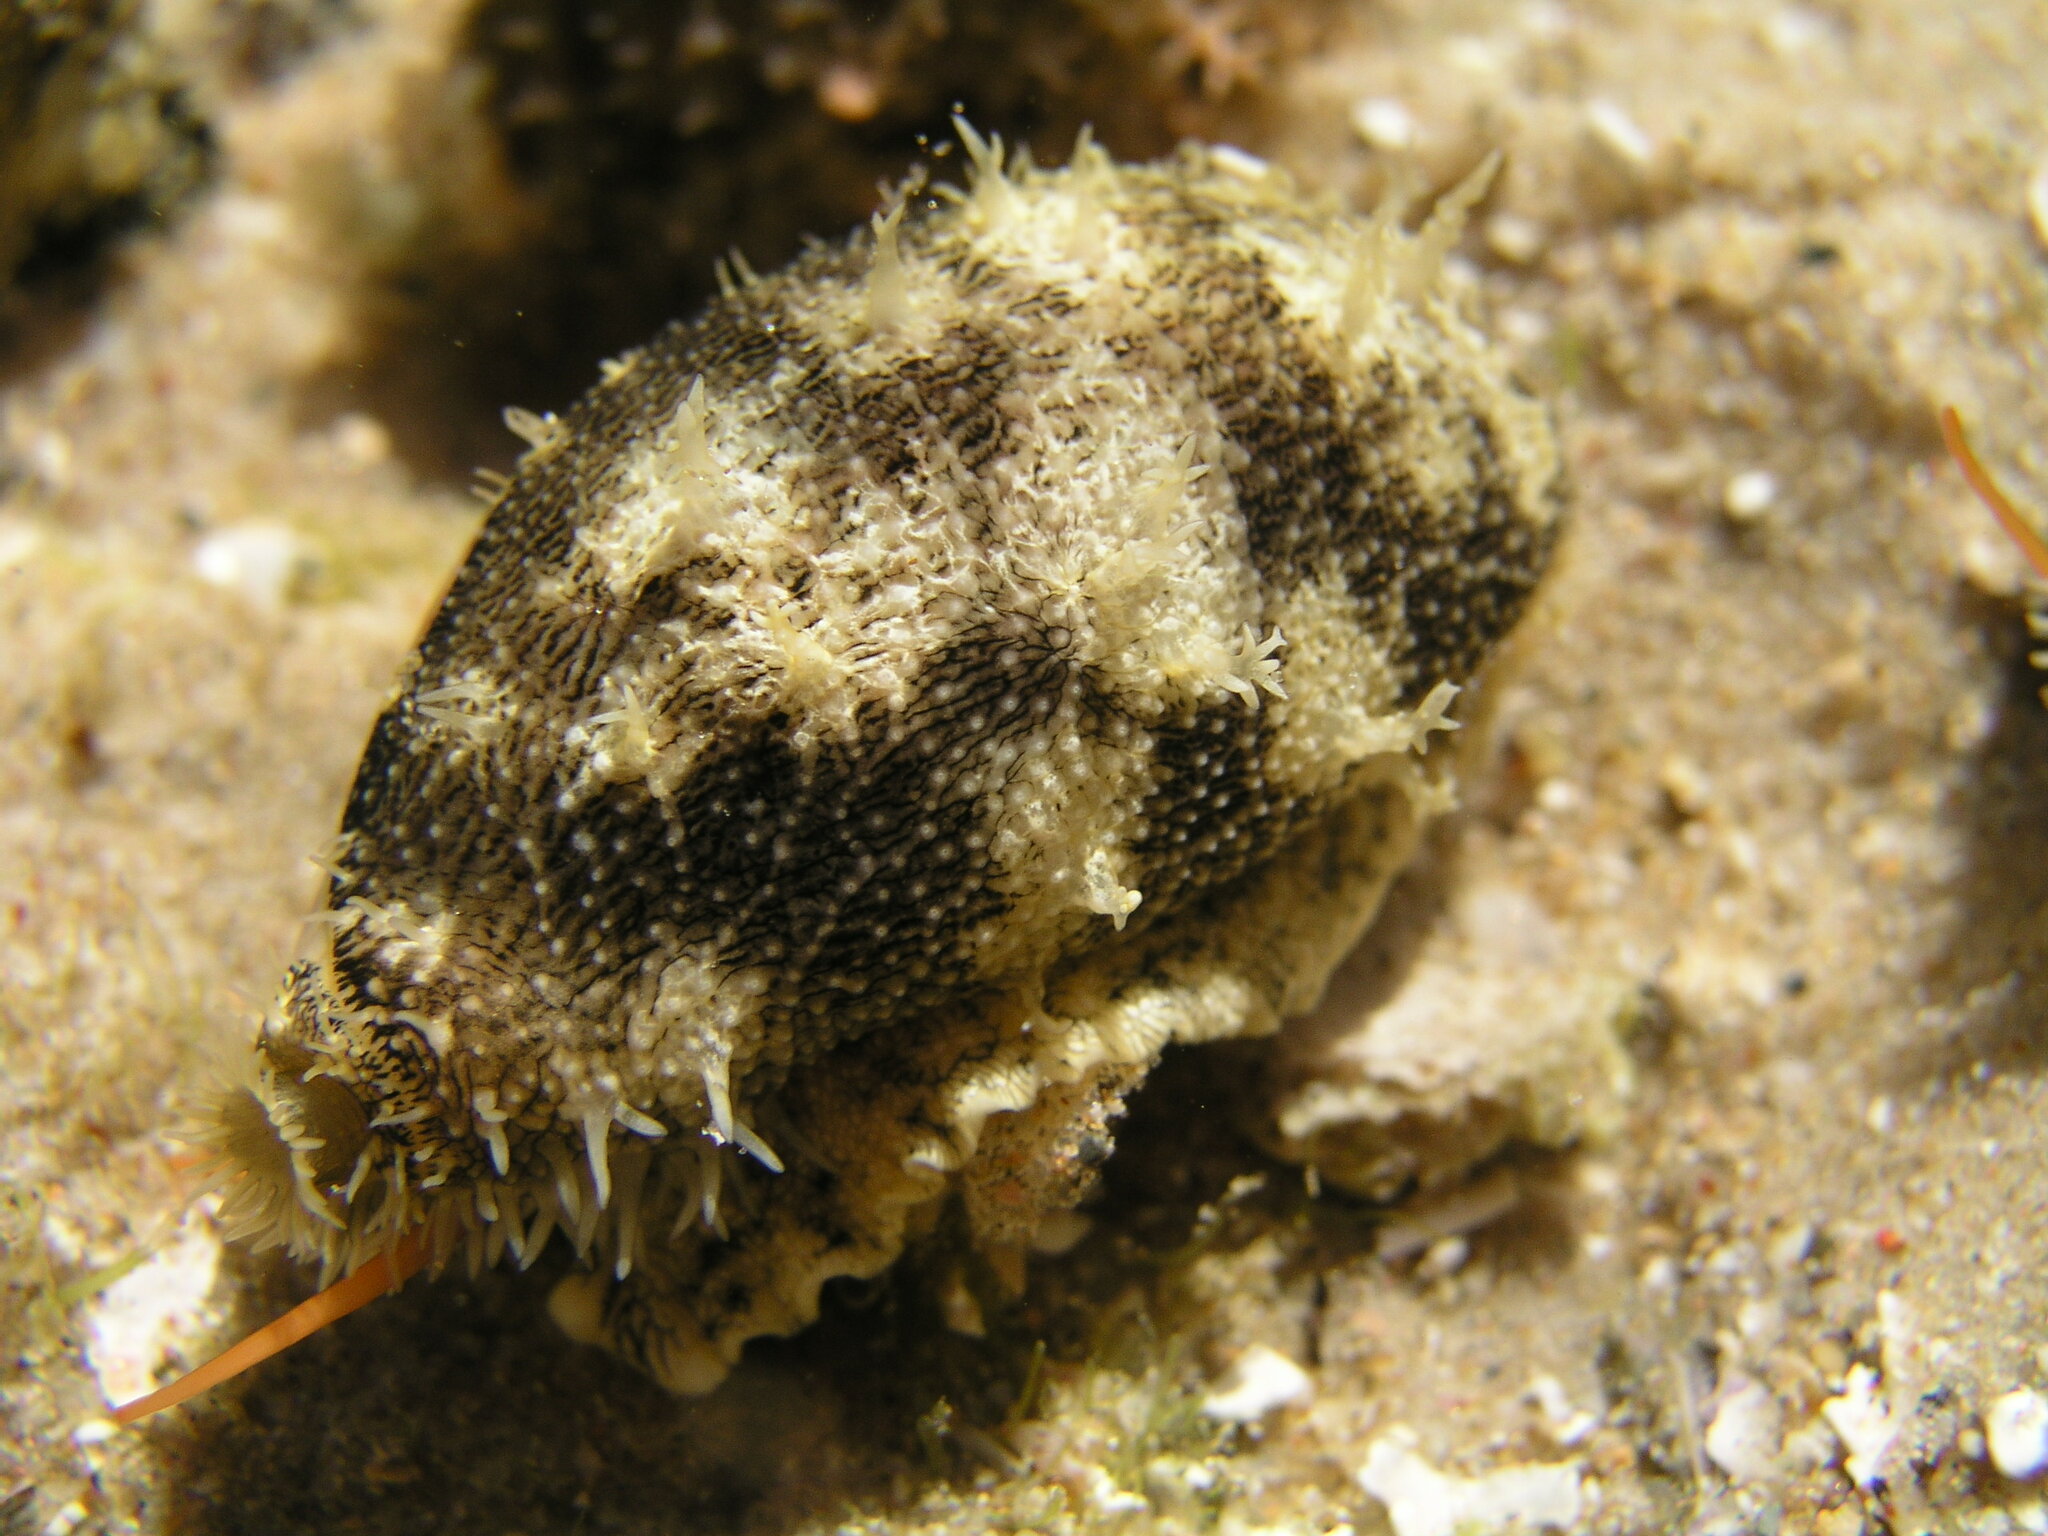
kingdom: Animalia
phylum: Mollusca
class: Gastropoda
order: Littorinimorpha
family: Cypraeidae
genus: Erronea
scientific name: Erronea errones
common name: Mistaken cowrie
